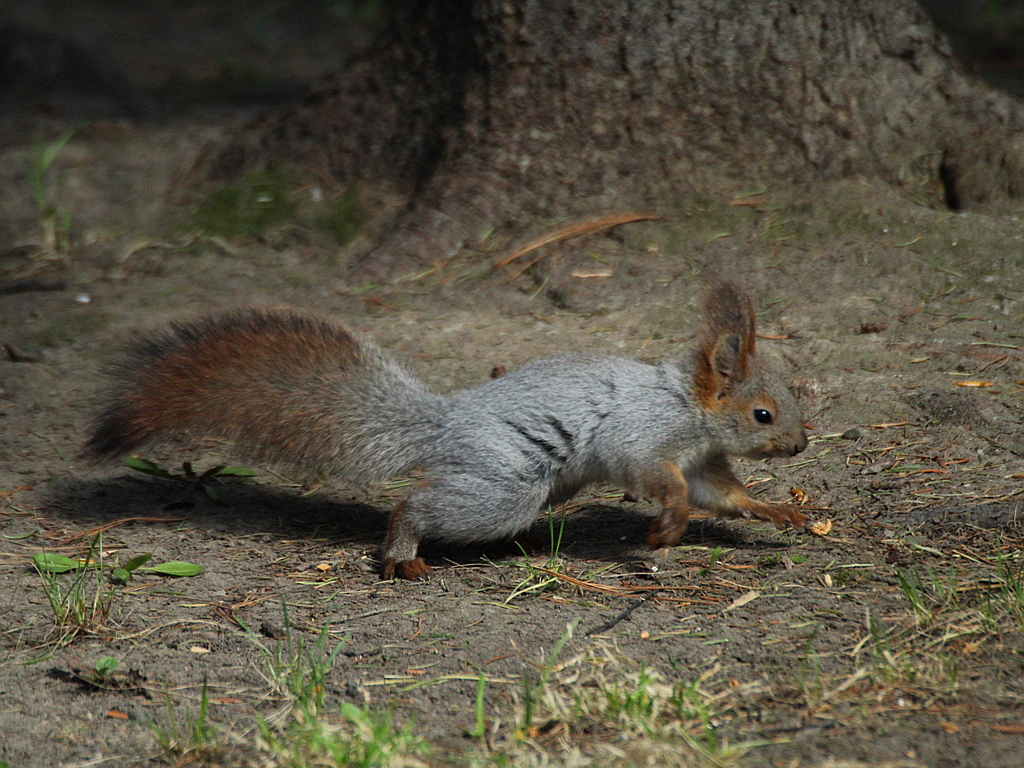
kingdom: Animalia
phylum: Chordata
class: Mammalia
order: Rodentia
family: Sciuridae
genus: Sciurus
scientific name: Sciurus vulgaris
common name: Eurasian red squirrel
